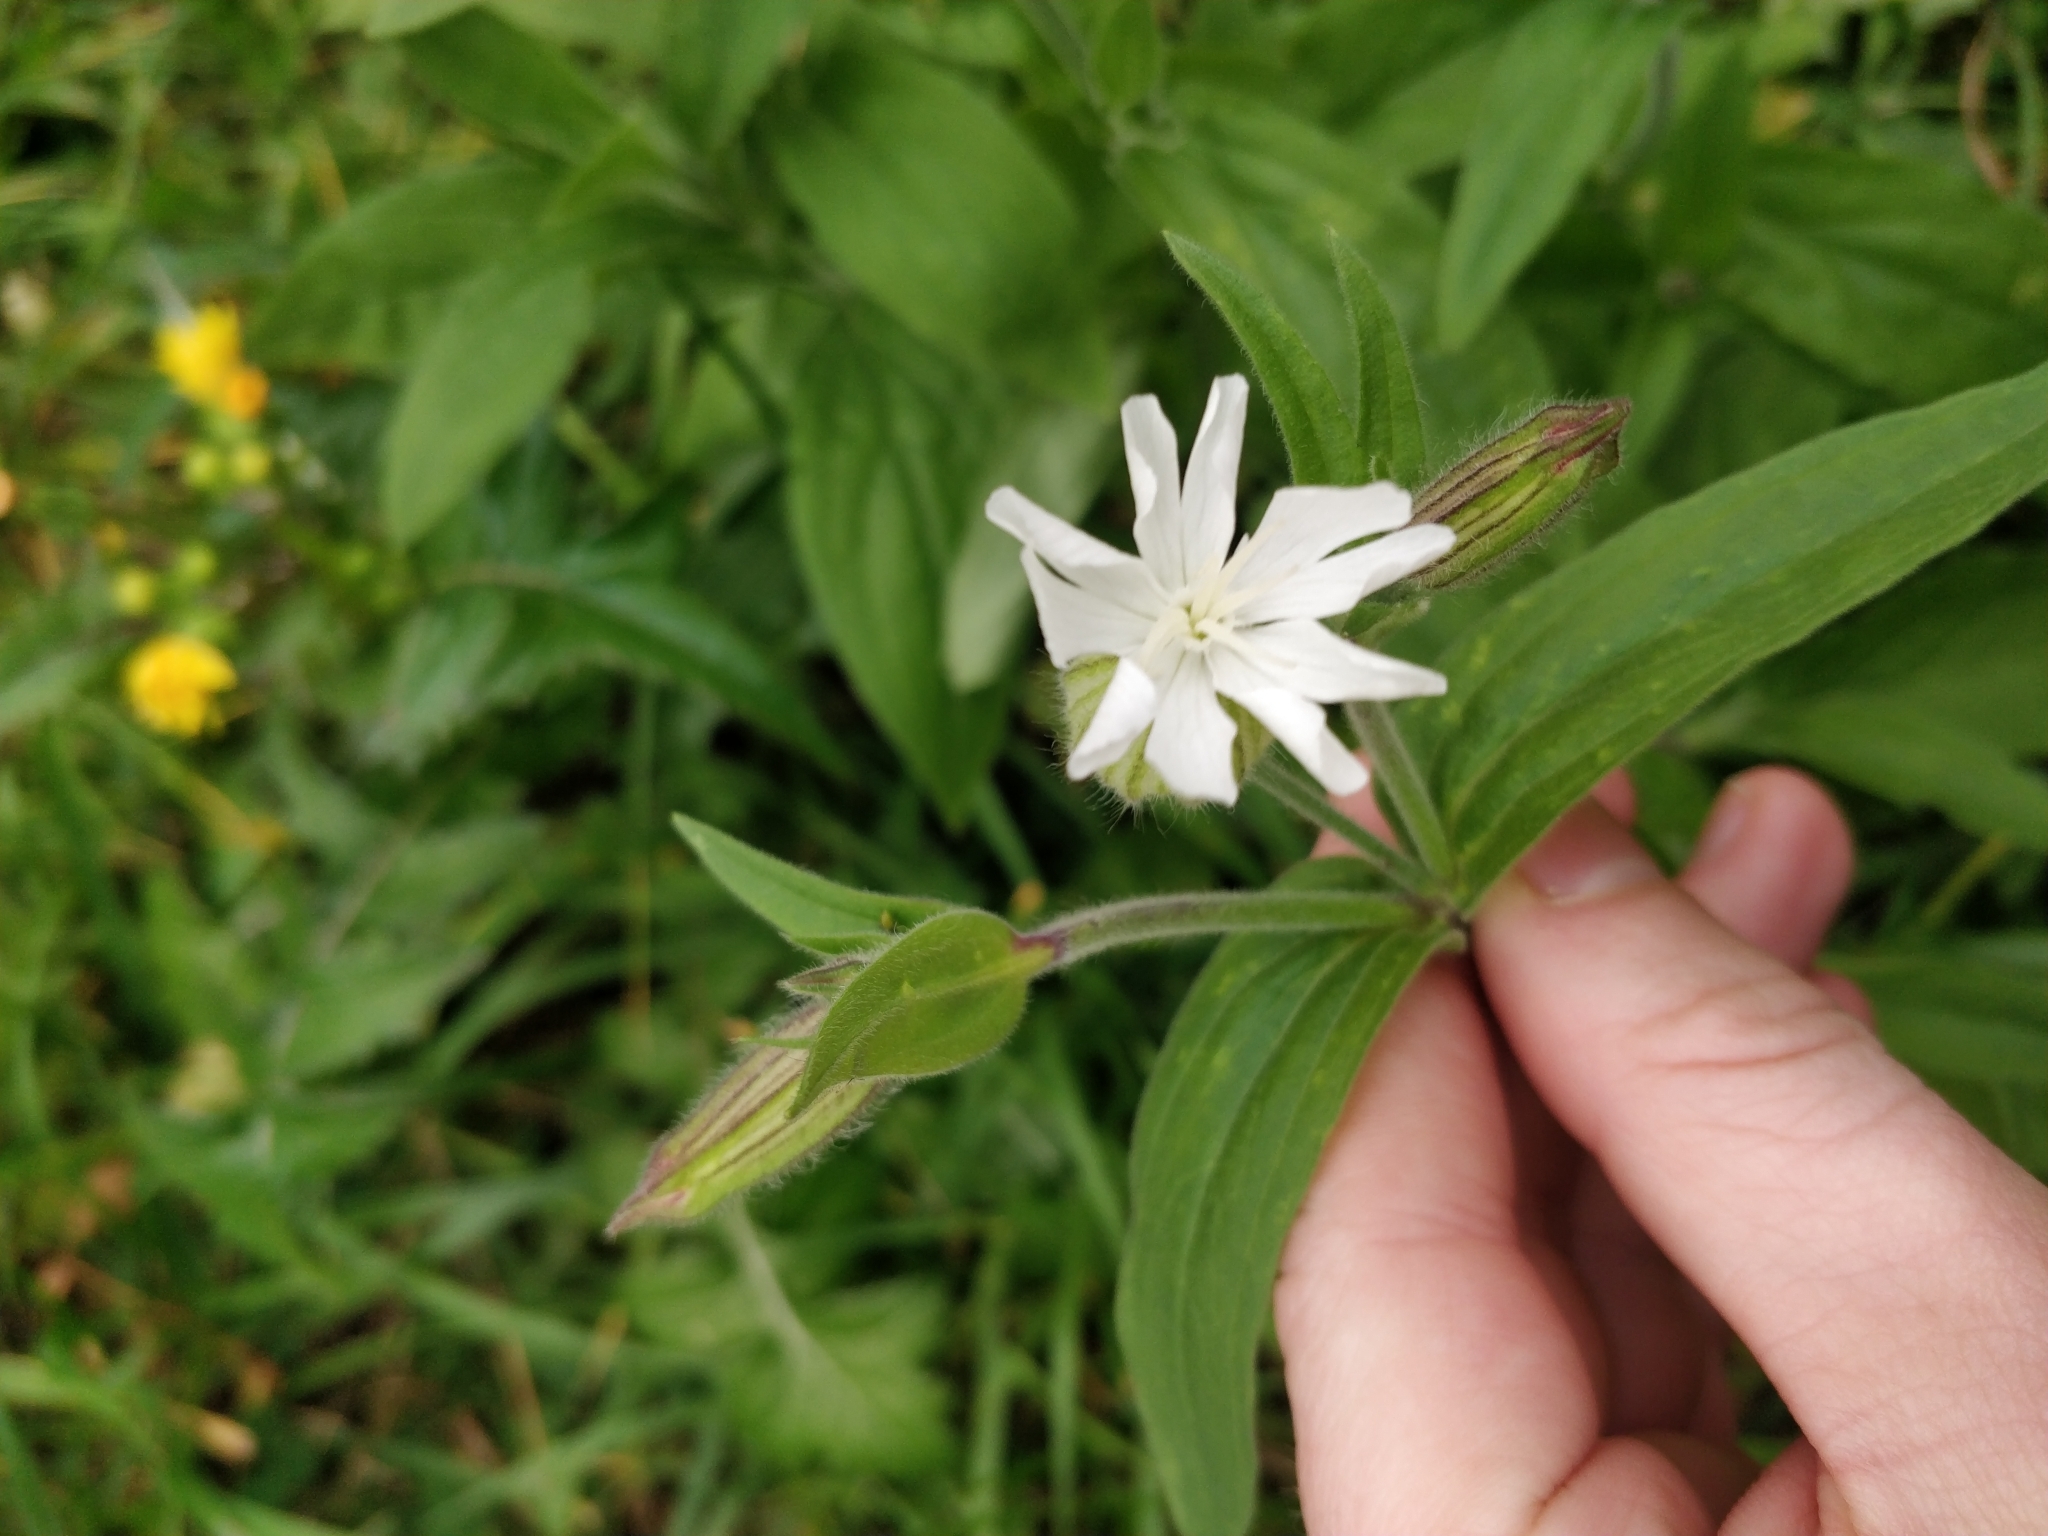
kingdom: Plantae
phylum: Tracheophyta
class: Magnoliopsida
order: Caryophyllales
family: Caryophyllaceae
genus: Silene
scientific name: Silene latifolia
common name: White campion
